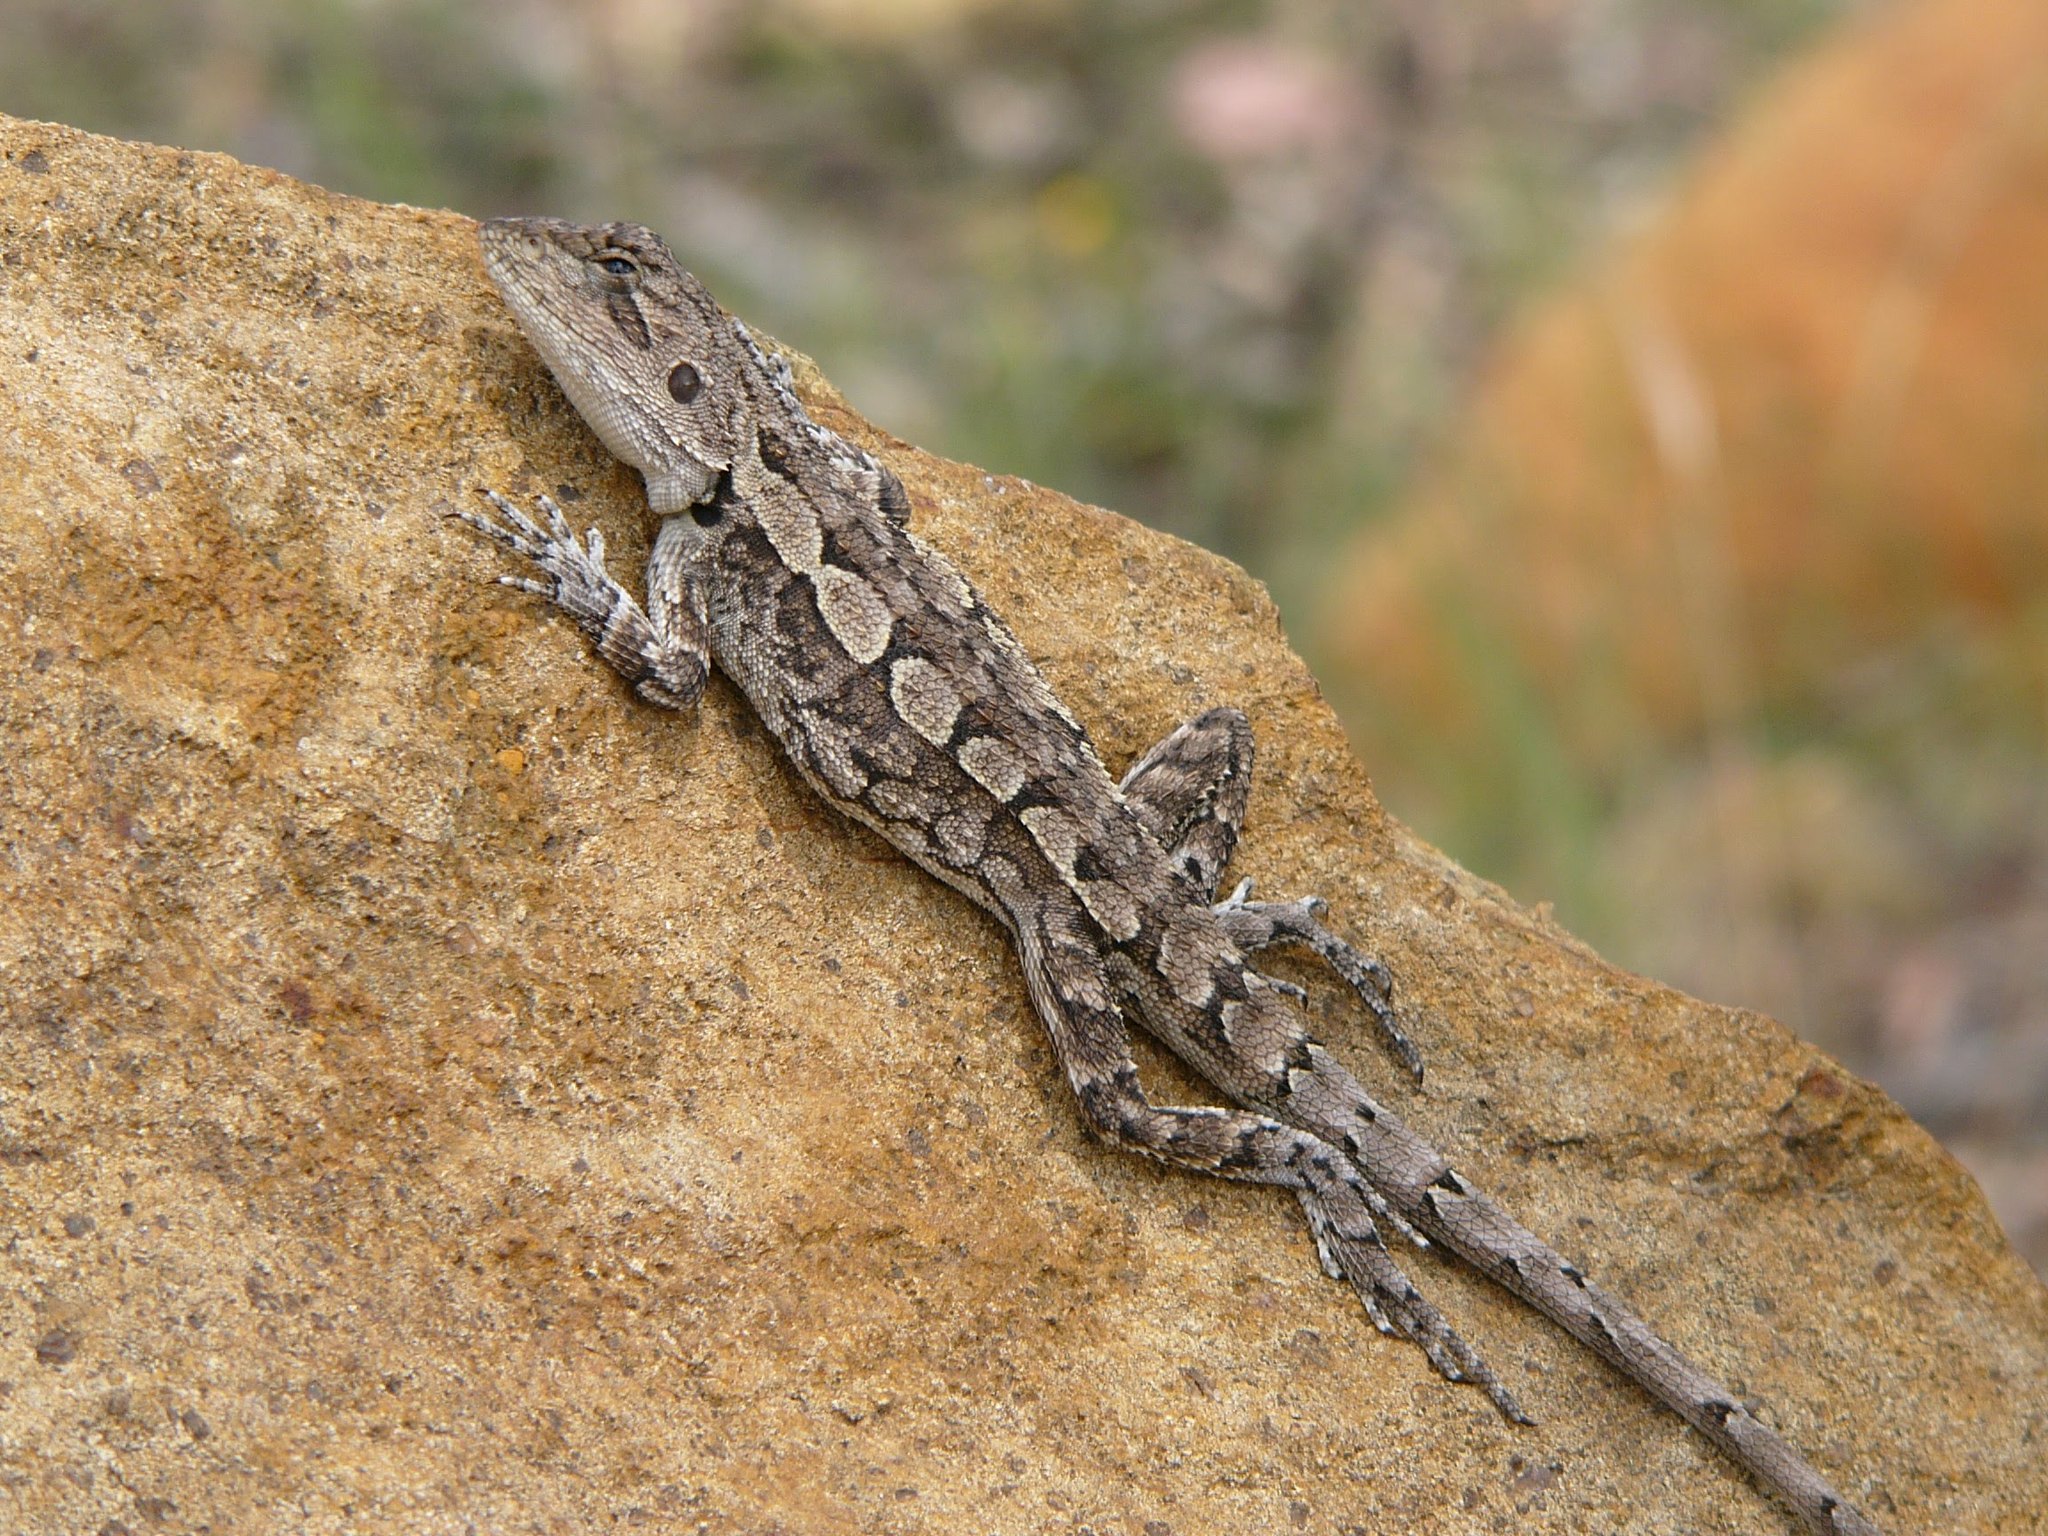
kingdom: Animalia
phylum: Chordata
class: Squamata
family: Agamidae
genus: Amphibolurus
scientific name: Amphibolurus muricatus
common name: Jacky lizard
